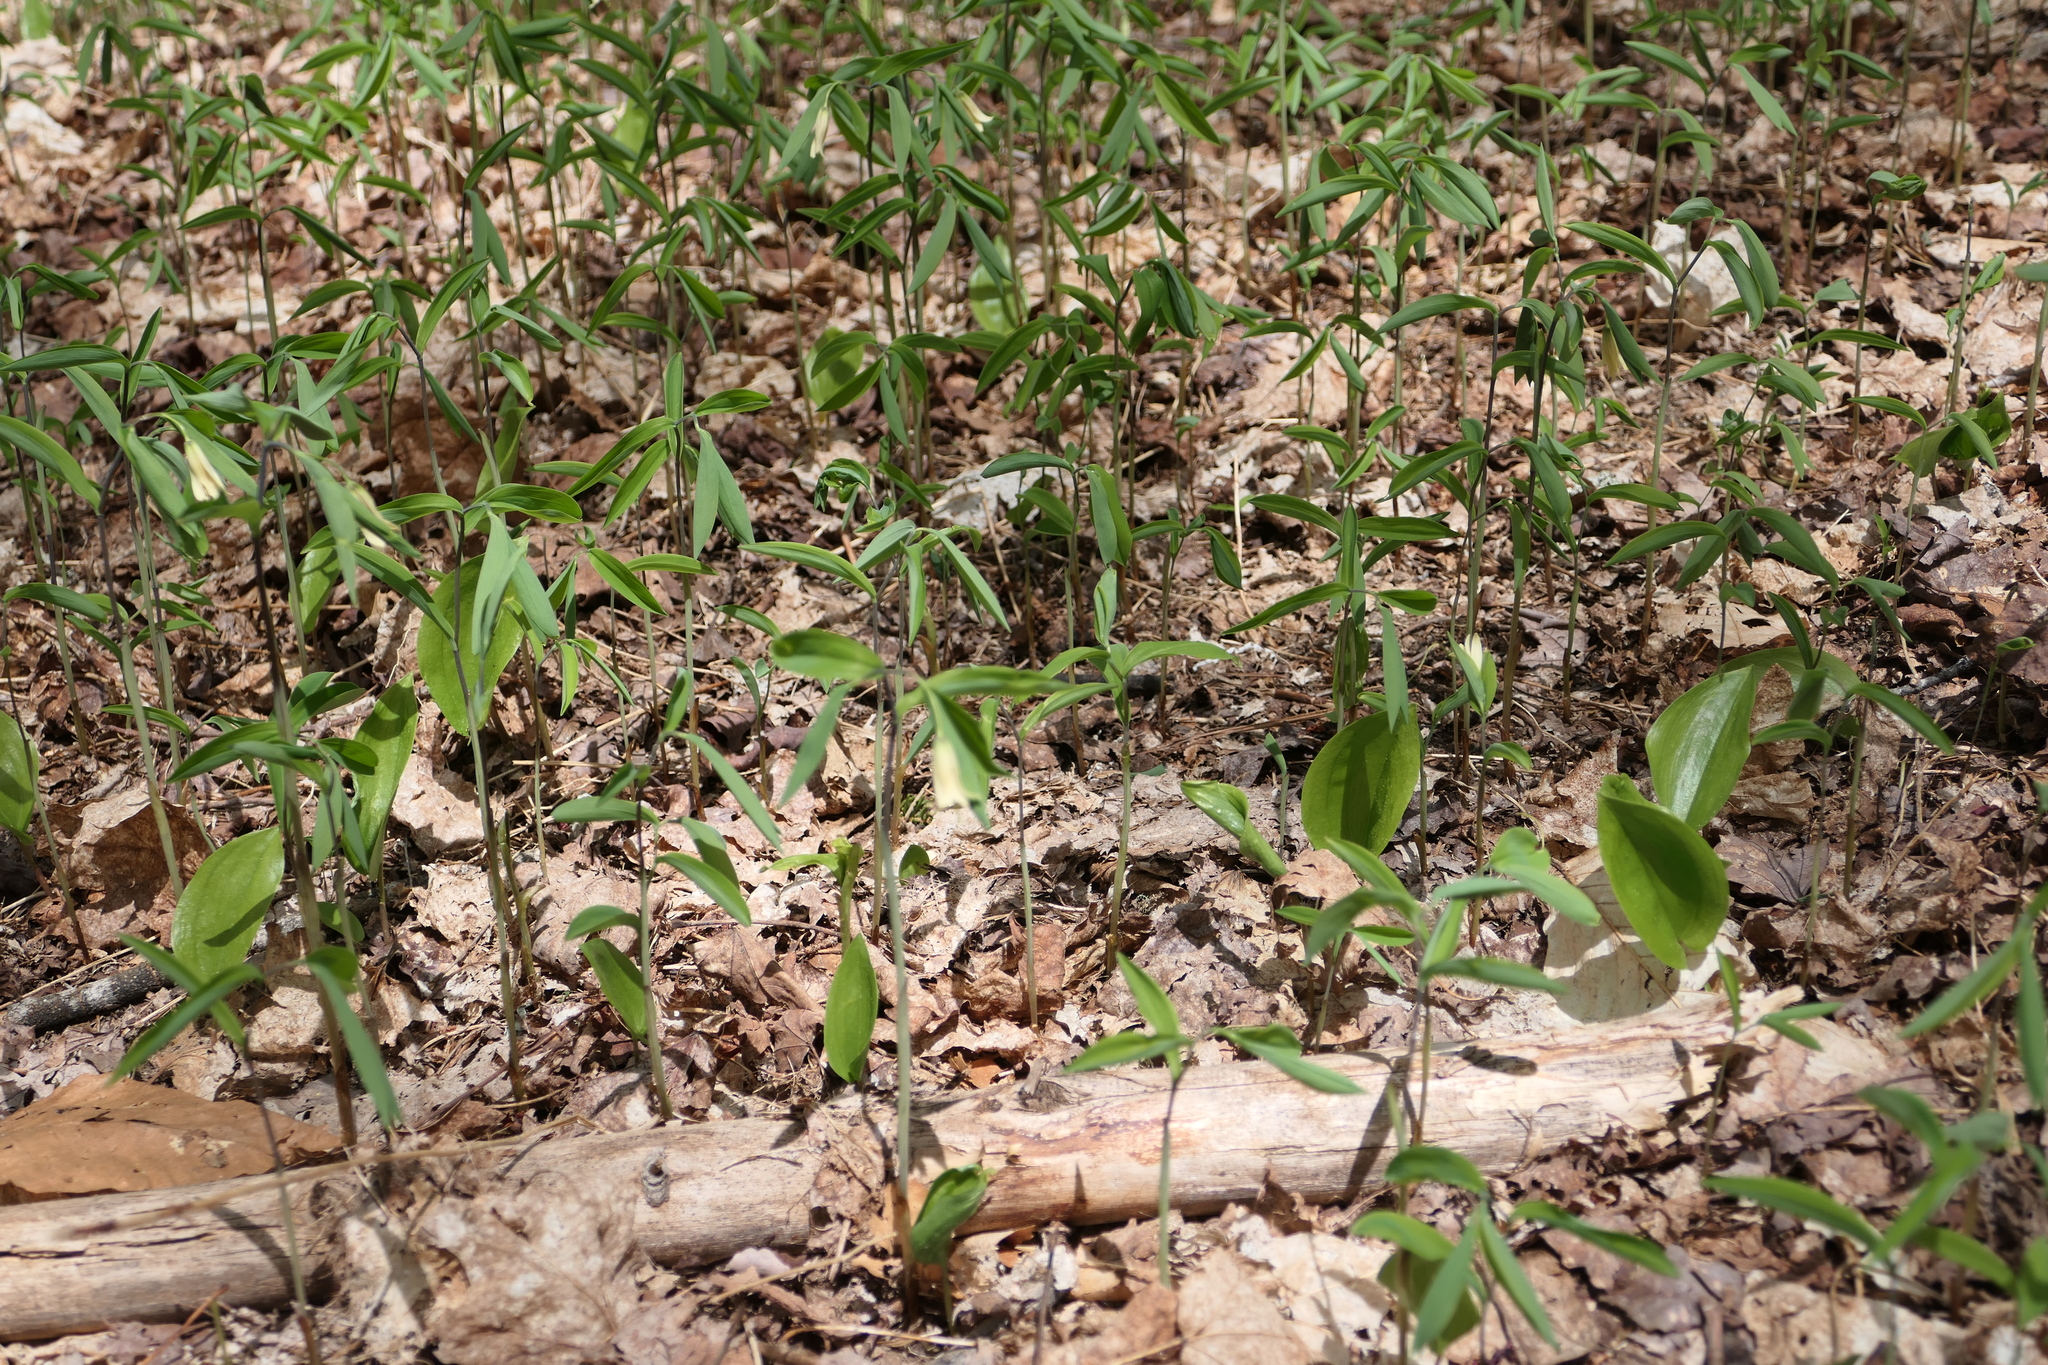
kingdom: Plantae
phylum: Tracheophyta
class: Liliopsida
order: Liliales
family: Colchicaceae
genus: Uvularia
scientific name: Uvularia sessilifolia
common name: Straw-lily
